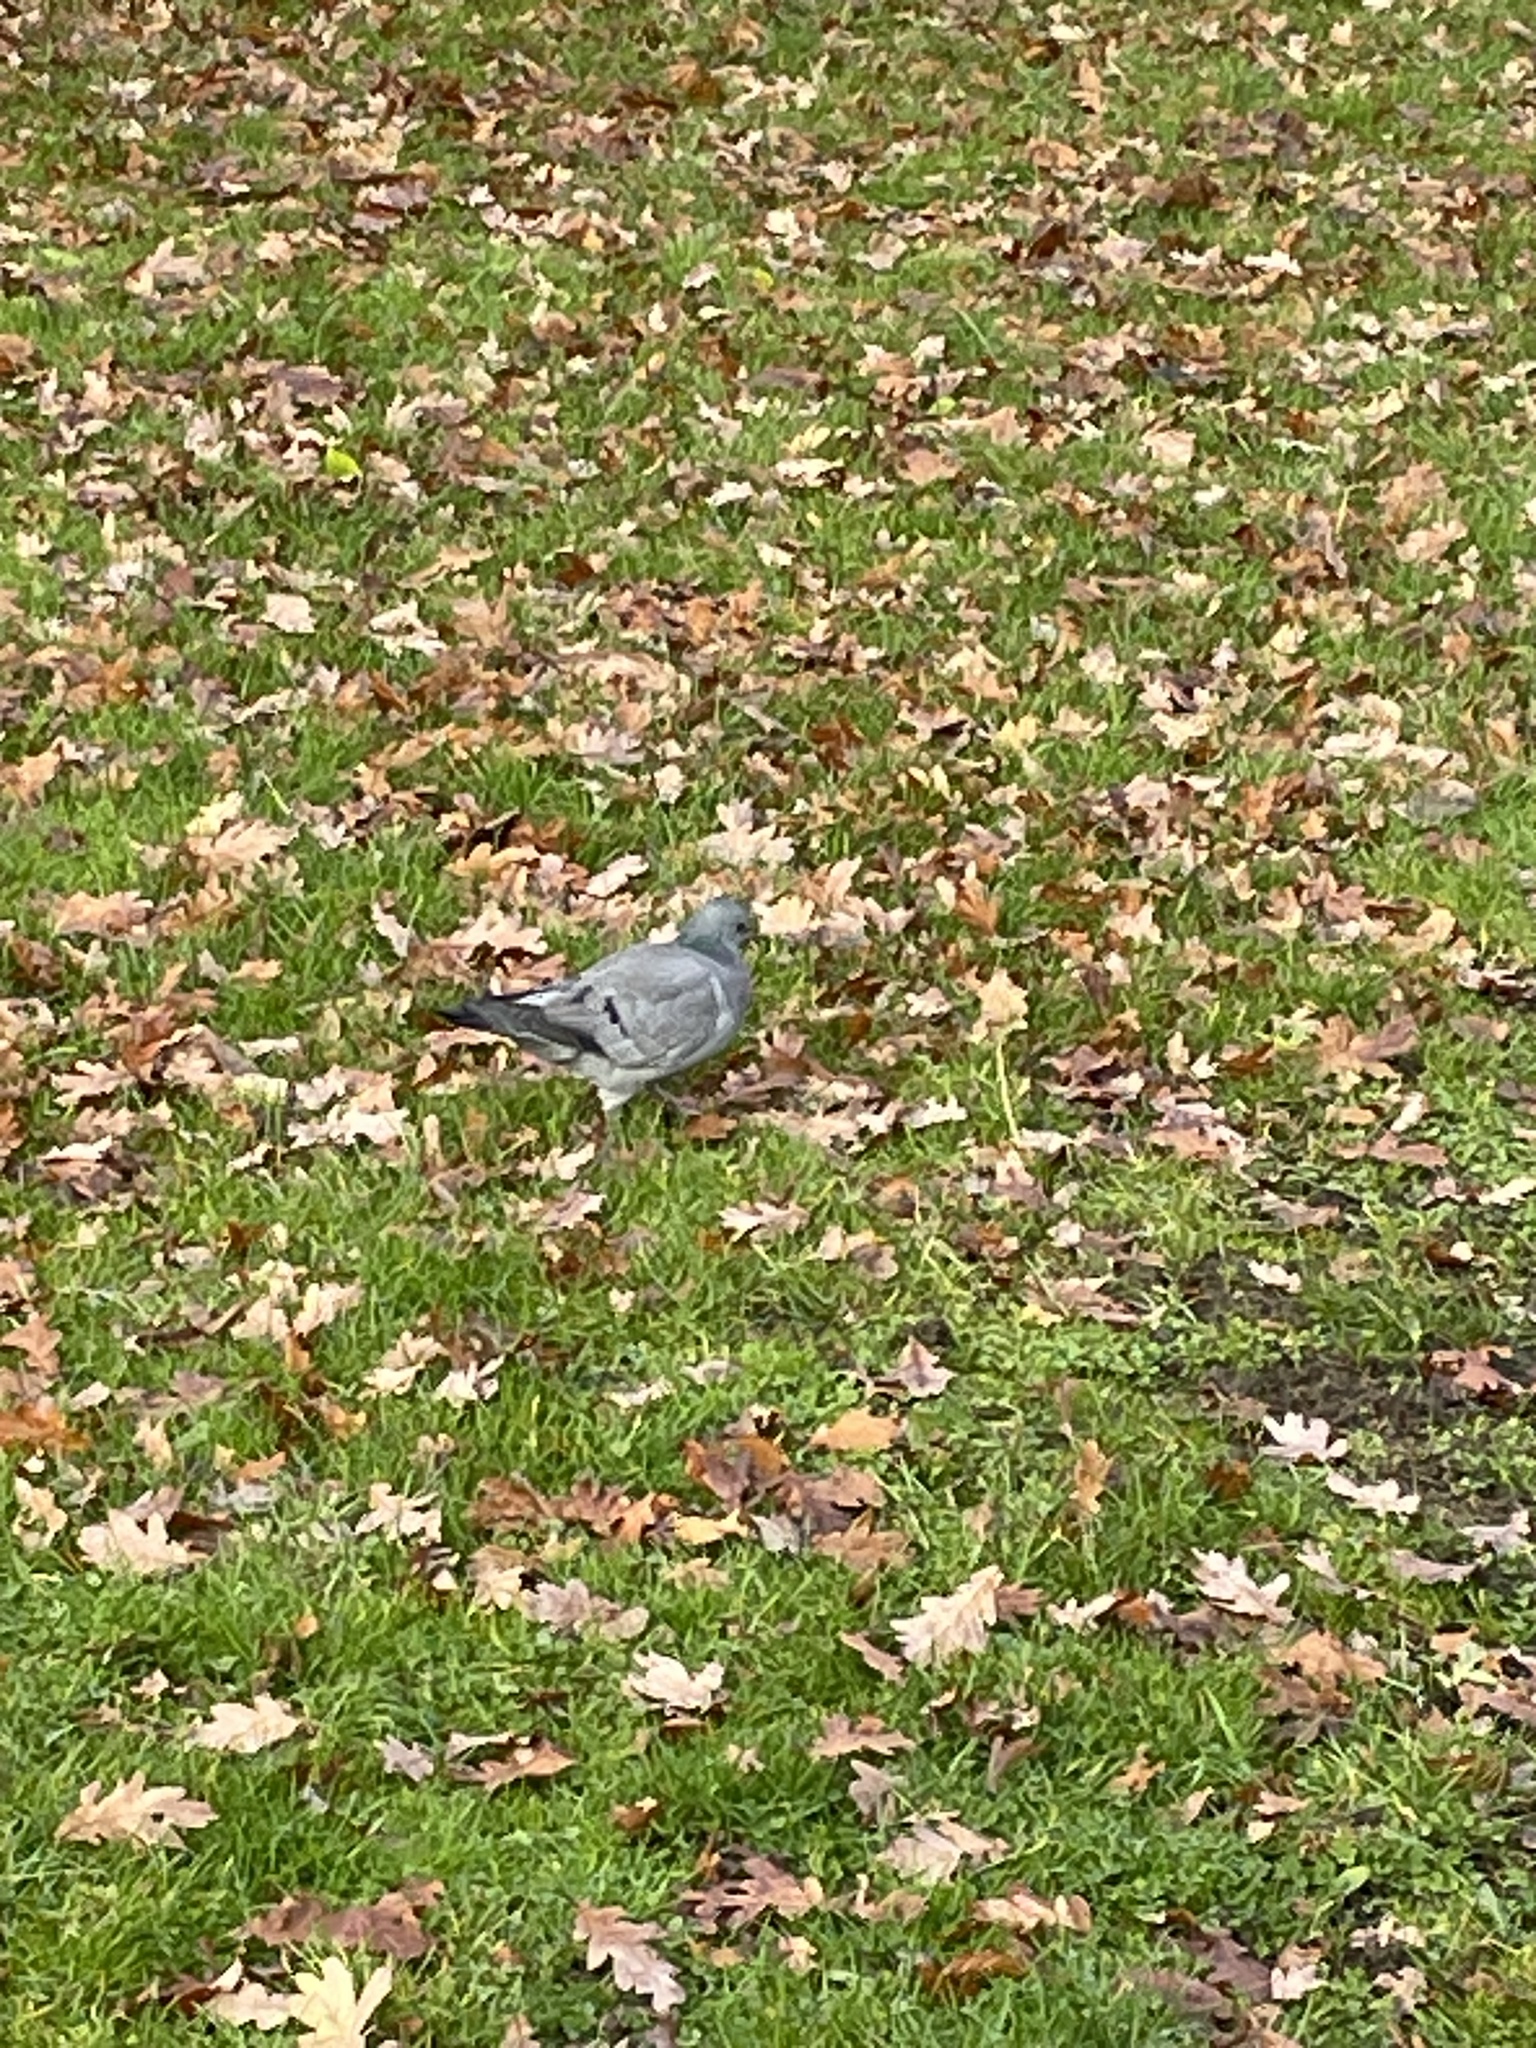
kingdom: Animalia
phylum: Chordata
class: Aves
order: Columbiformes
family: Columbidae
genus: Columba
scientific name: Columba oenas
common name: Stock dove
